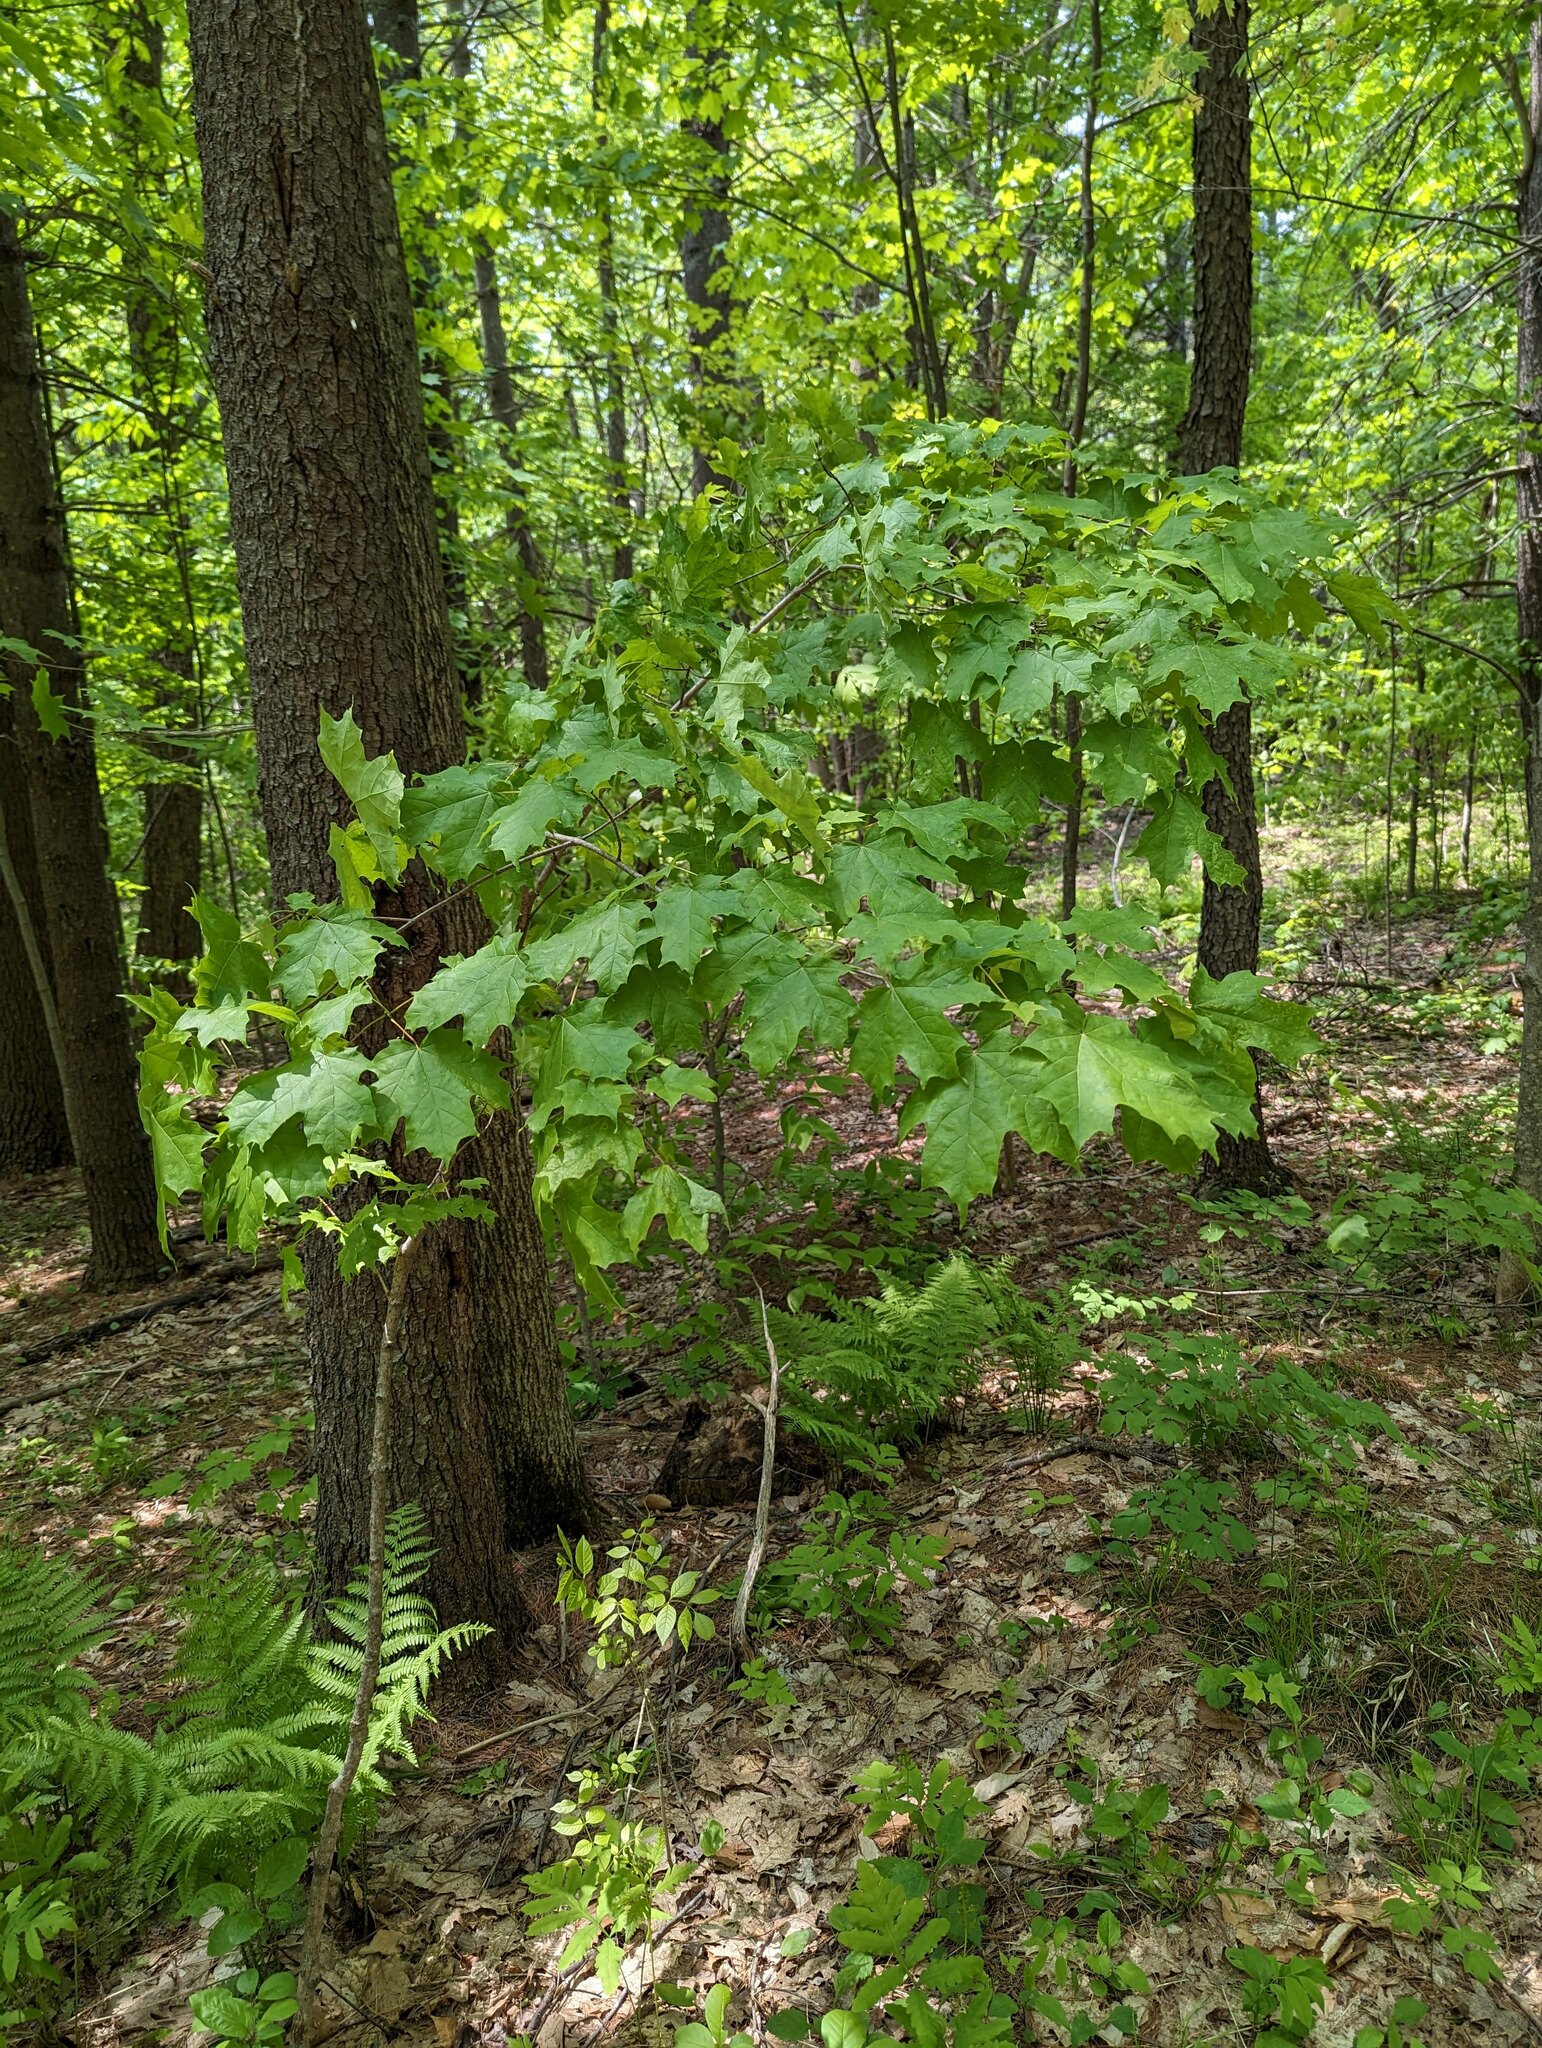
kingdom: Plantae
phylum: Tracheophyta
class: Magnoliopsida
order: Sapindales
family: Sapindaceae
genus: Acer
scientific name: Acer saccharum
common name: Sugar maple
